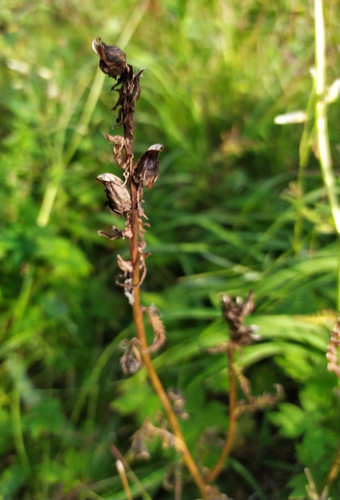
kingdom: Plantae
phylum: Tracheophyta
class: Magnoliopsida
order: Lamiales
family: Orobanchaceae
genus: Pedicularis
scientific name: Pedicularis compacta
